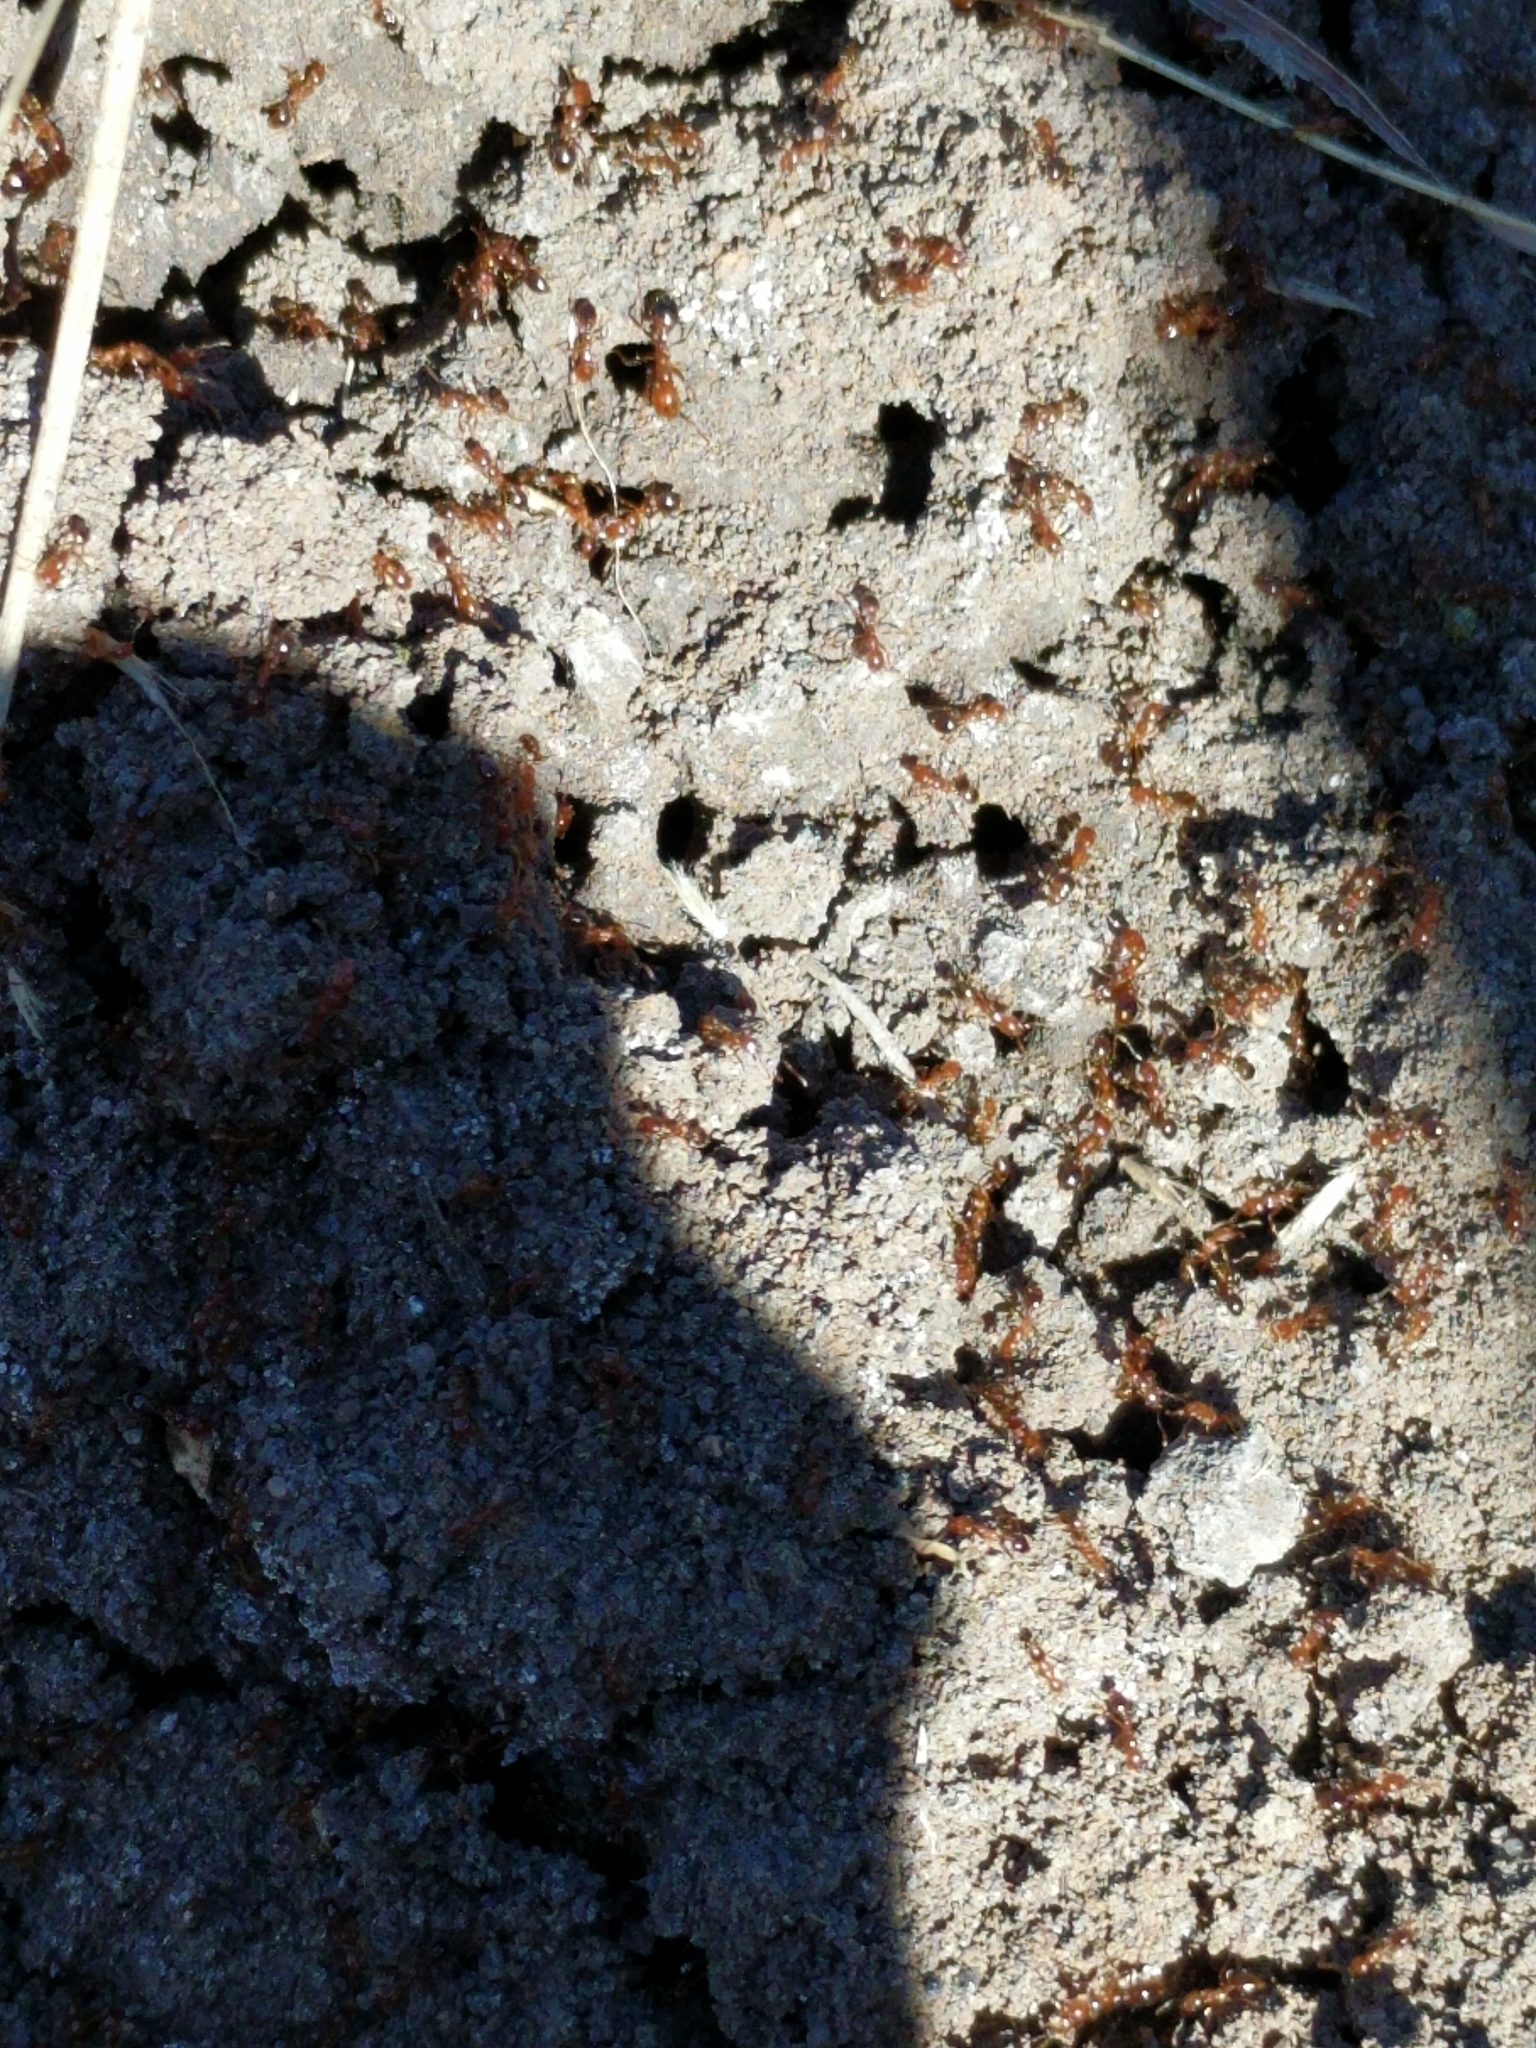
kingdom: Animalia
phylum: Arthropoda
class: Insecta
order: Hymenoptera
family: Formicidae
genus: Solenopsis
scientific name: Solenopsis invicta
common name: Red imported fire ant
